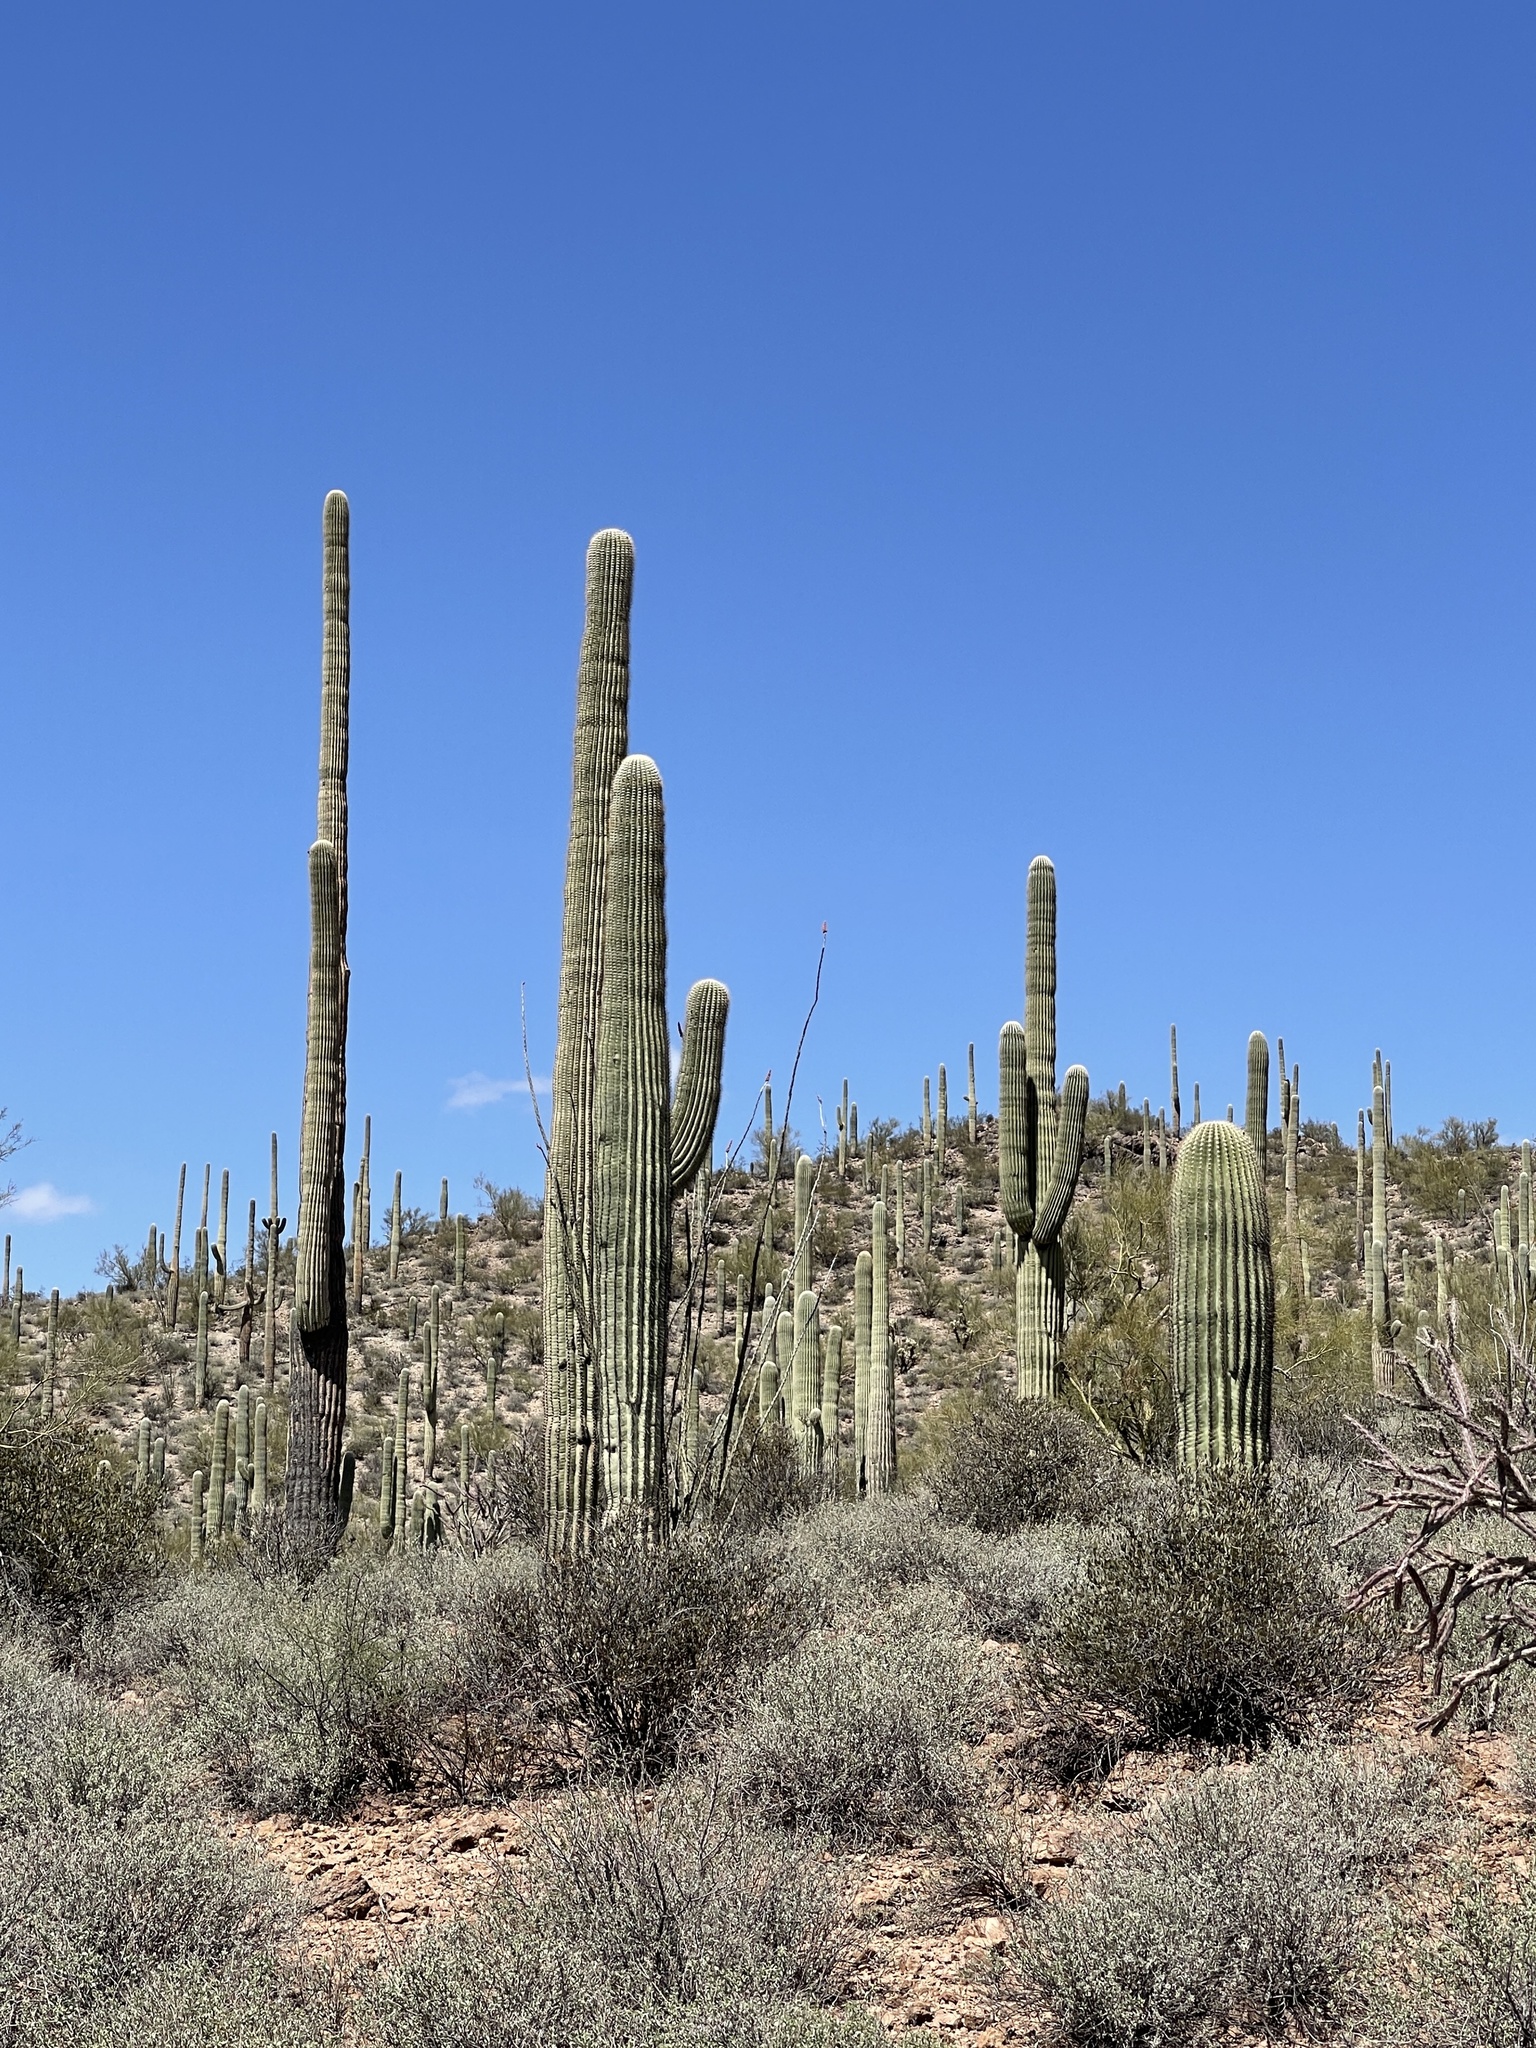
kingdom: Plantae
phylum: Tracheophyta
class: Magnoliopsida
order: Caryophyllales
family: Cactaceae
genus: Carnegiea
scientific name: Carnegiea gigantea
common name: Saguaro
